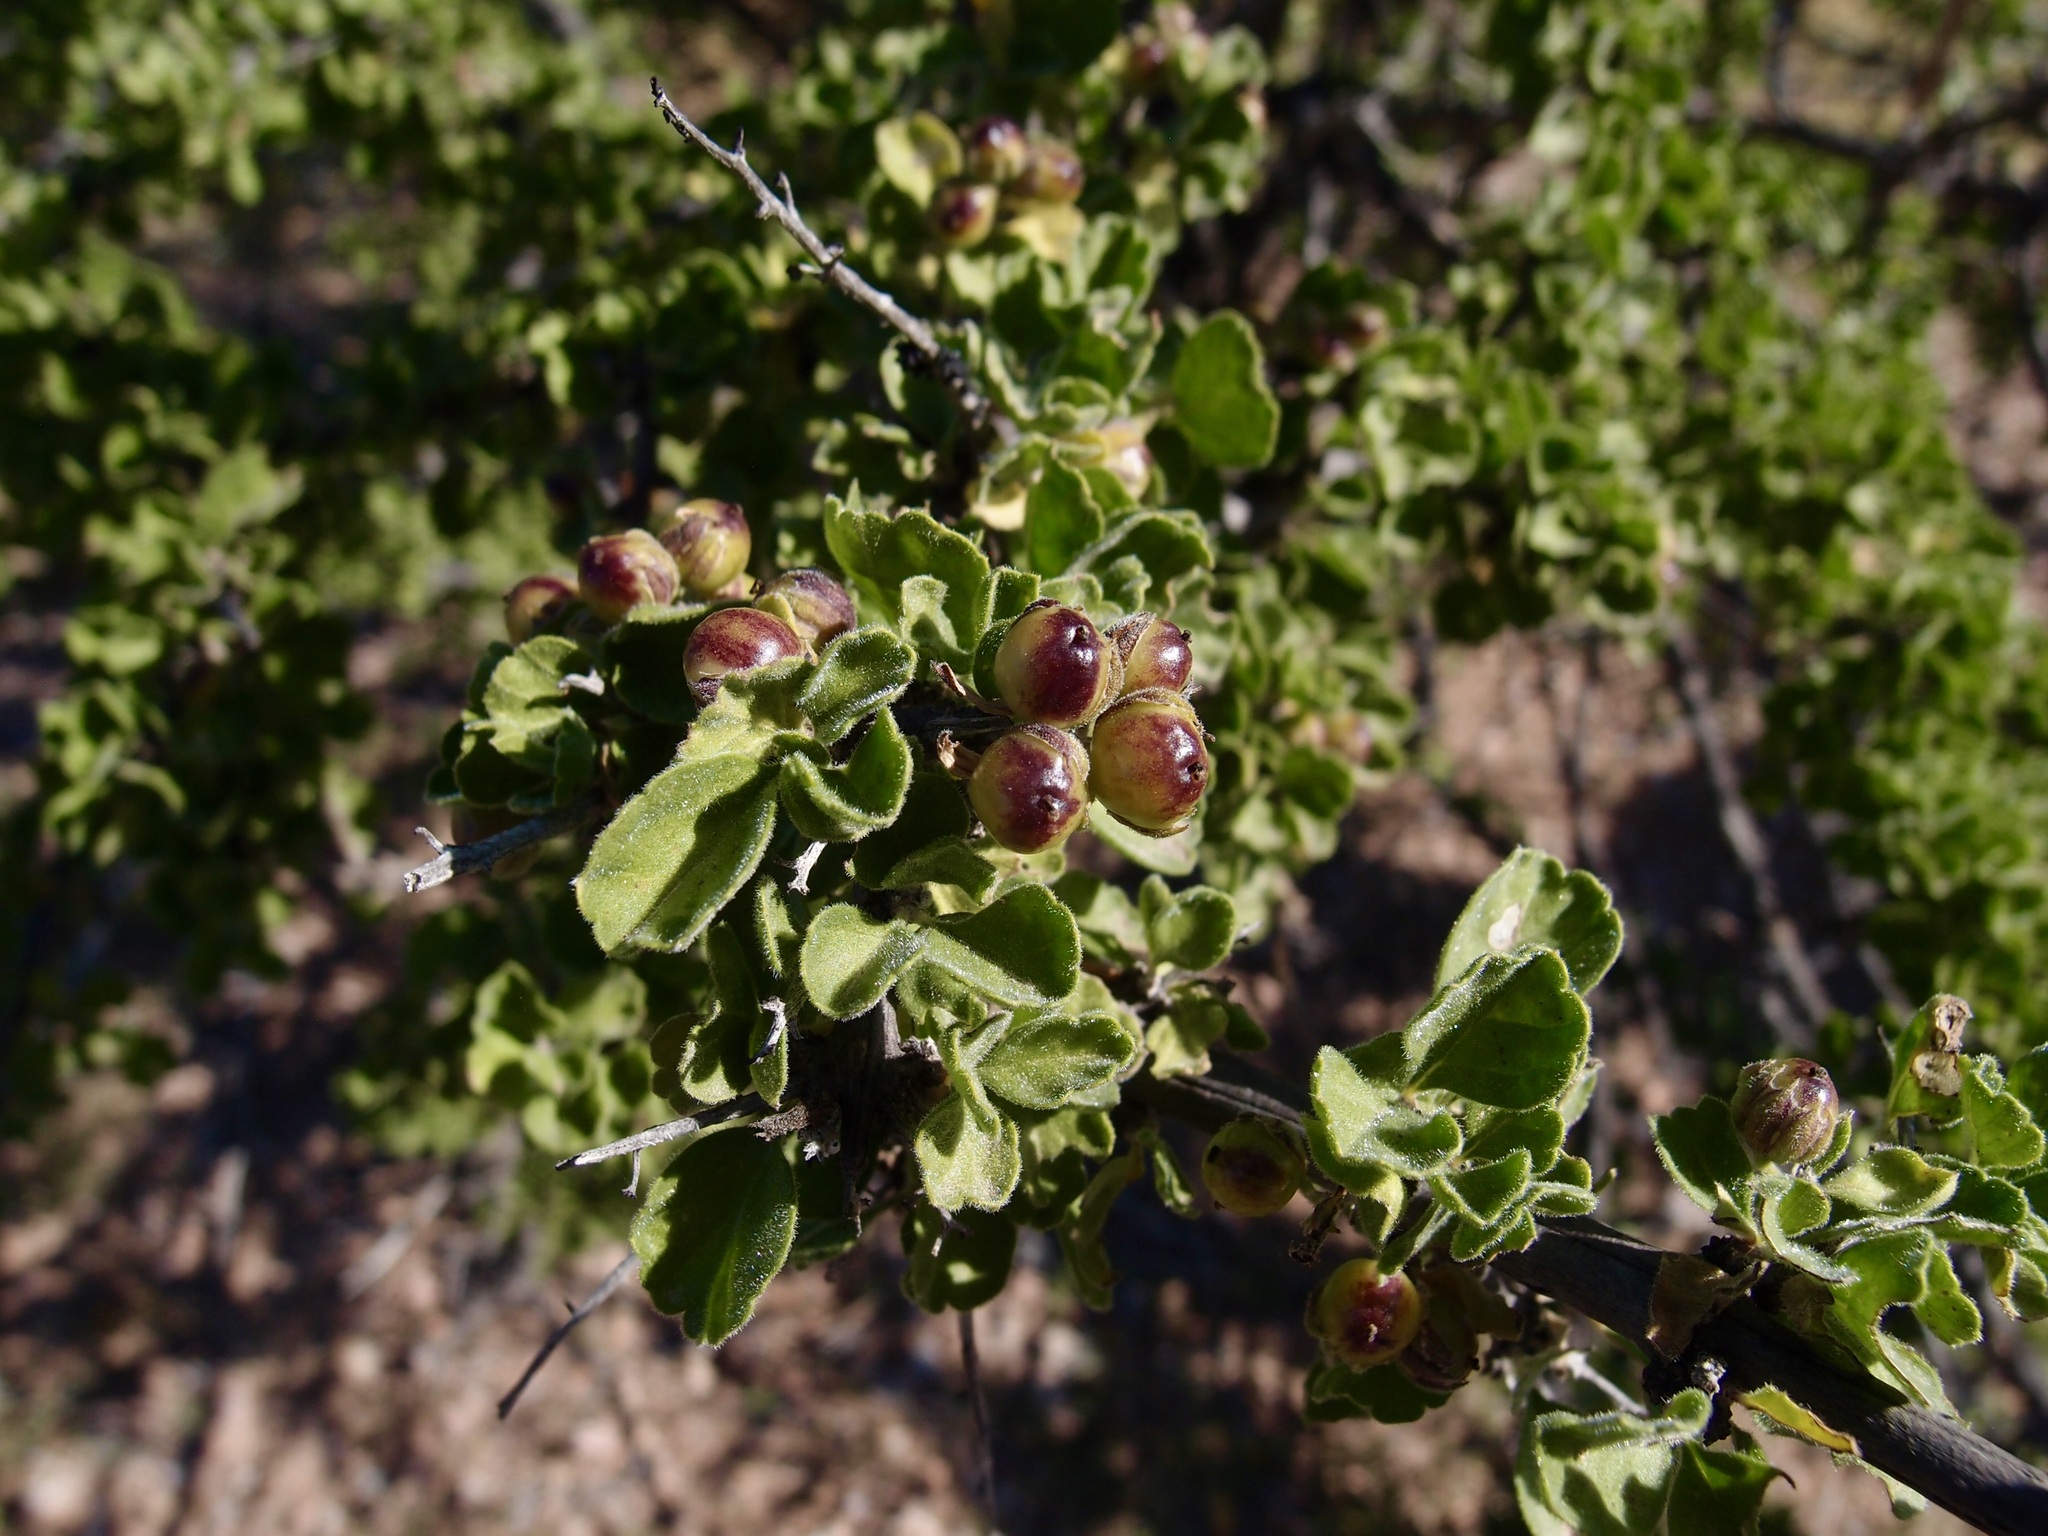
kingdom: Plantae
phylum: Tracheophyta
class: Magnoliopsida
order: Lamiales
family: Verbenaceae
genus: Citharexylum
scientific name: Citharexylum flabellifolium
